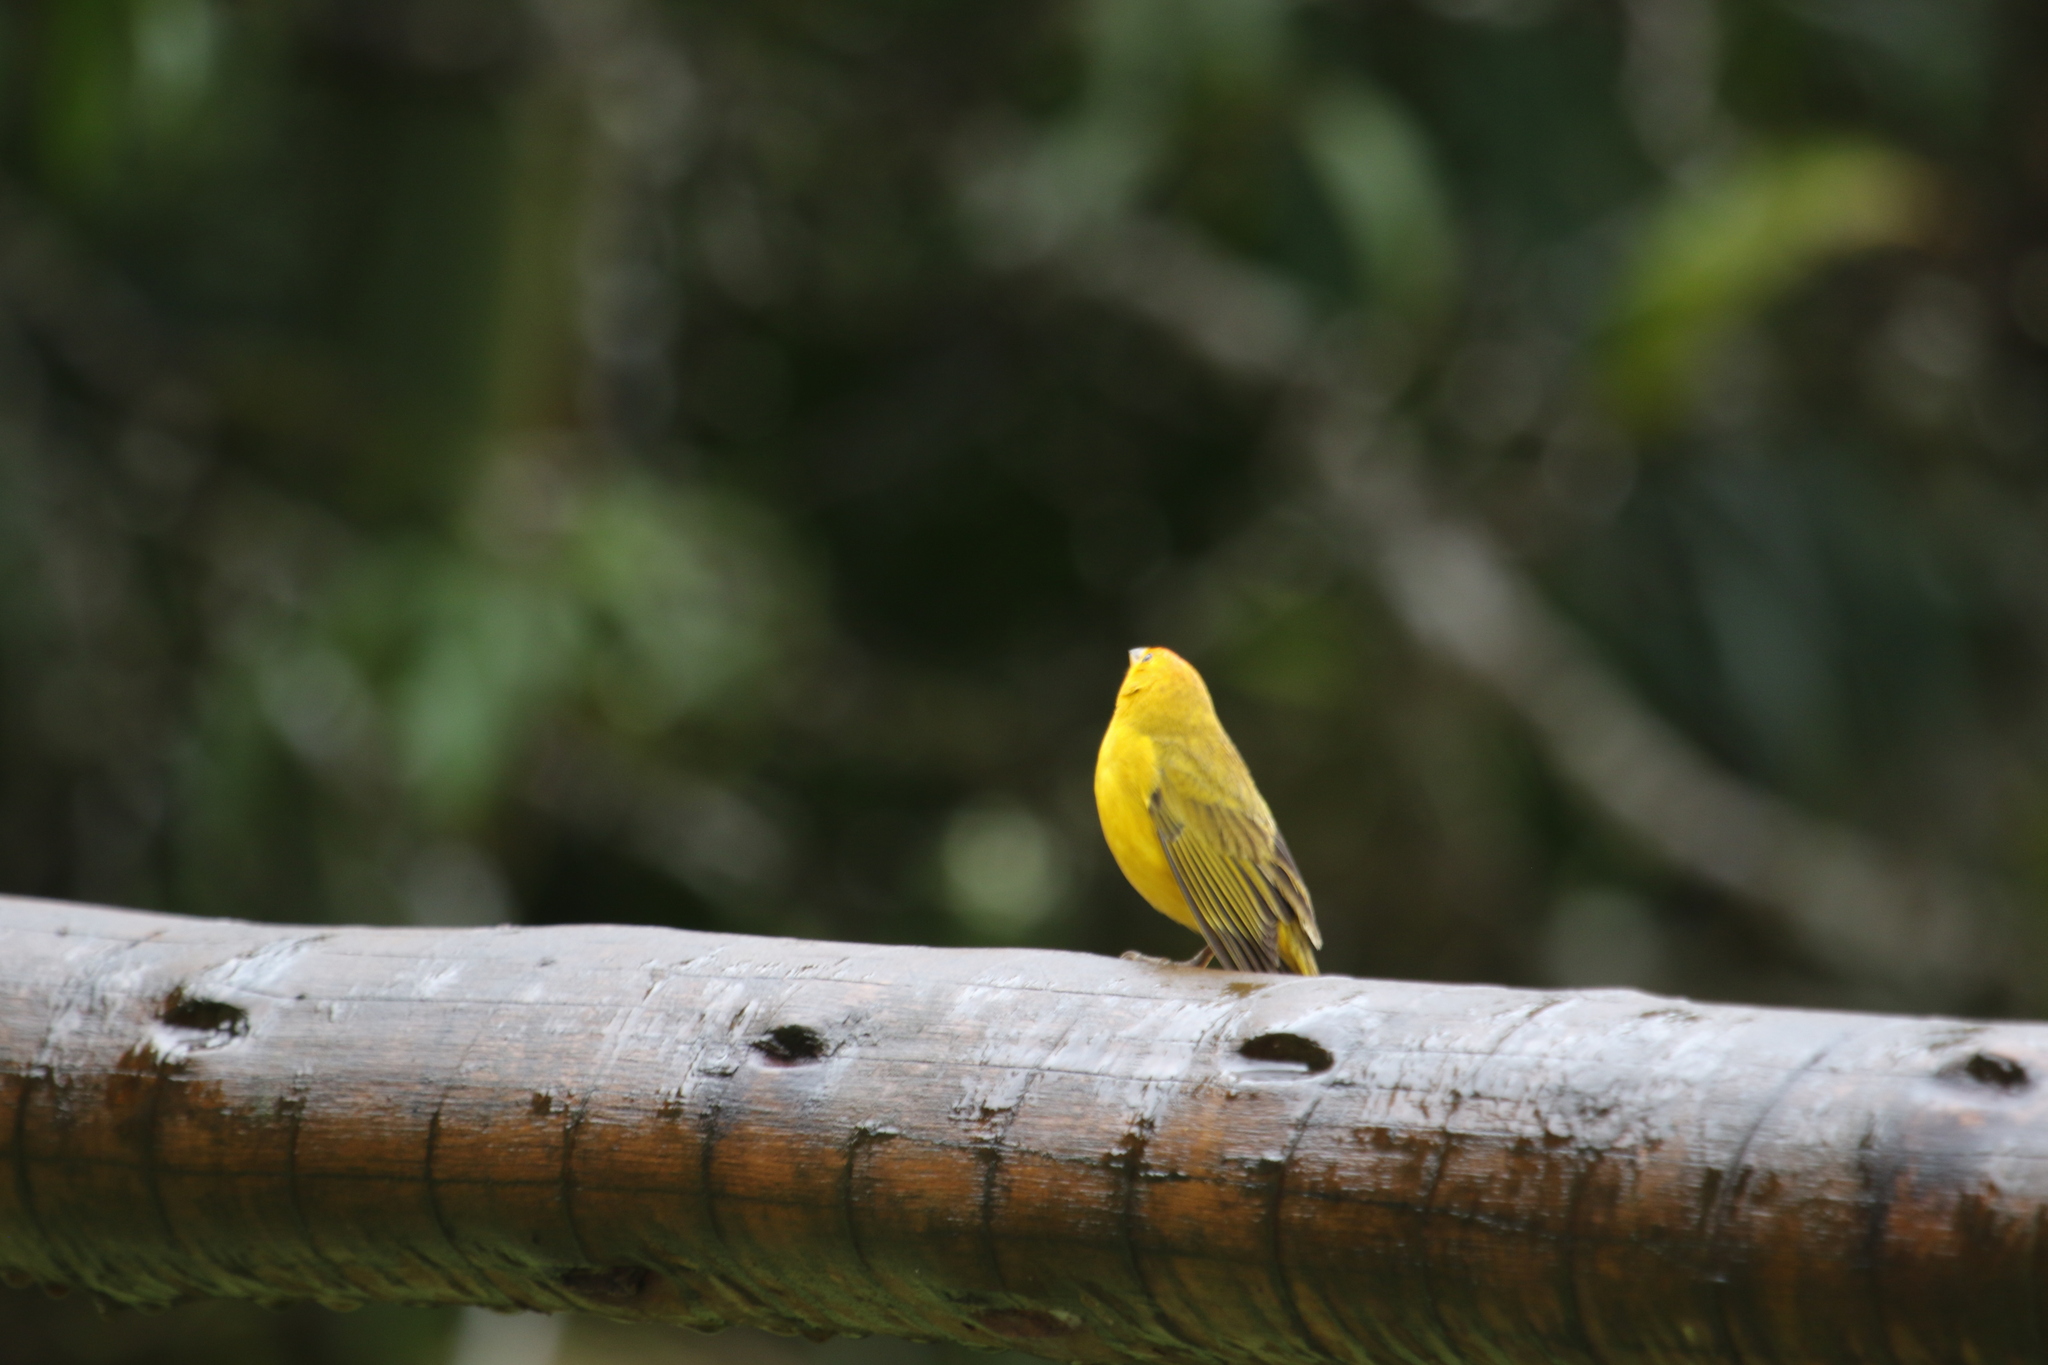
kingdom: Animalia
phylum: Chordata
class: Aves
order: Passeriformes
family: Thraupidae
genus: Sicalis
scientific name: Sicalis flaveola
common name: Saffron finch
